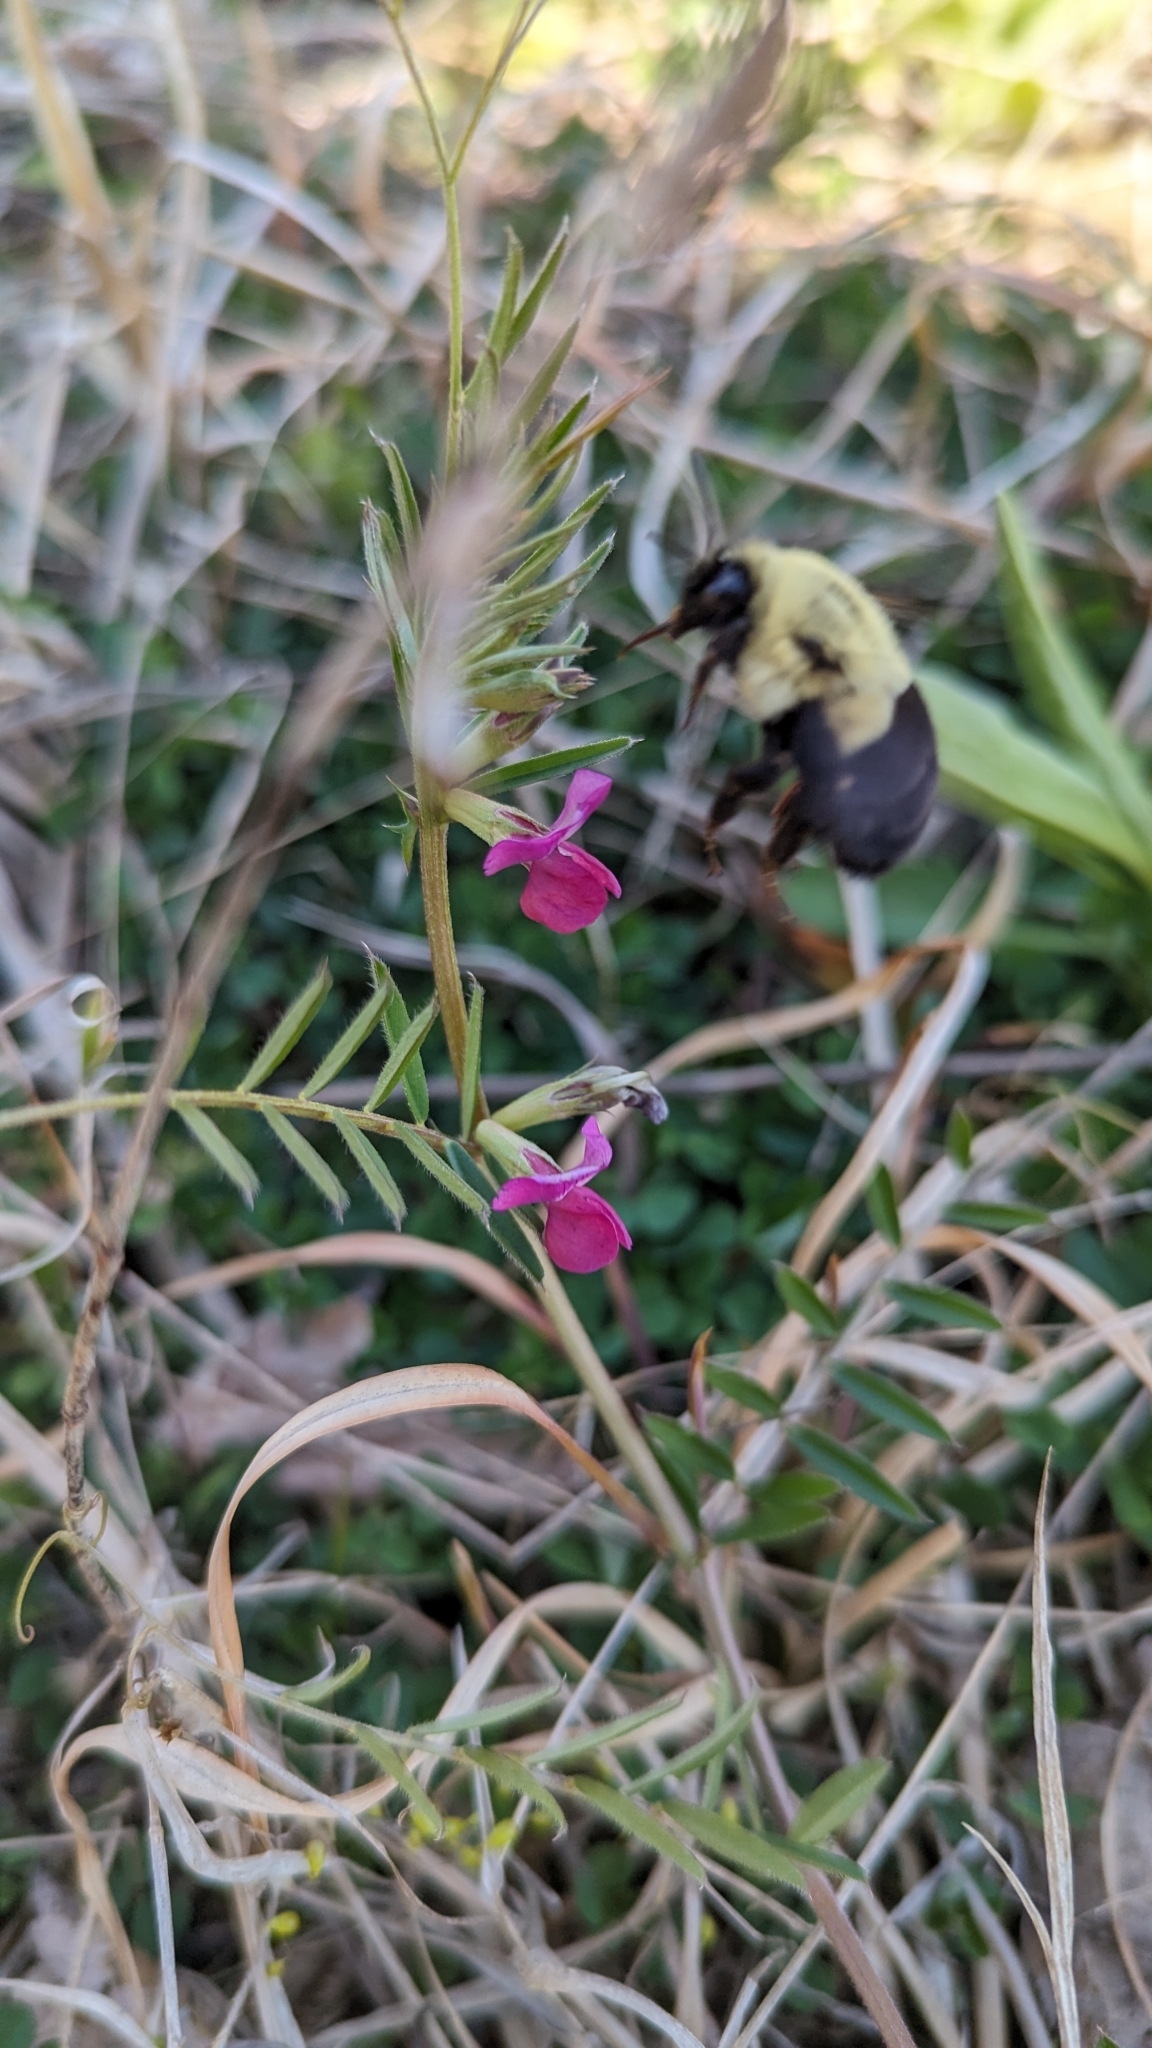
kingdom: Animalia
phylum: Arthropoda
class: Insecta
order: Hymenoptera
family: Apidae
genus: Bombus
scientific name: Bombus impatiens
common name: Common eastern bumble bee
